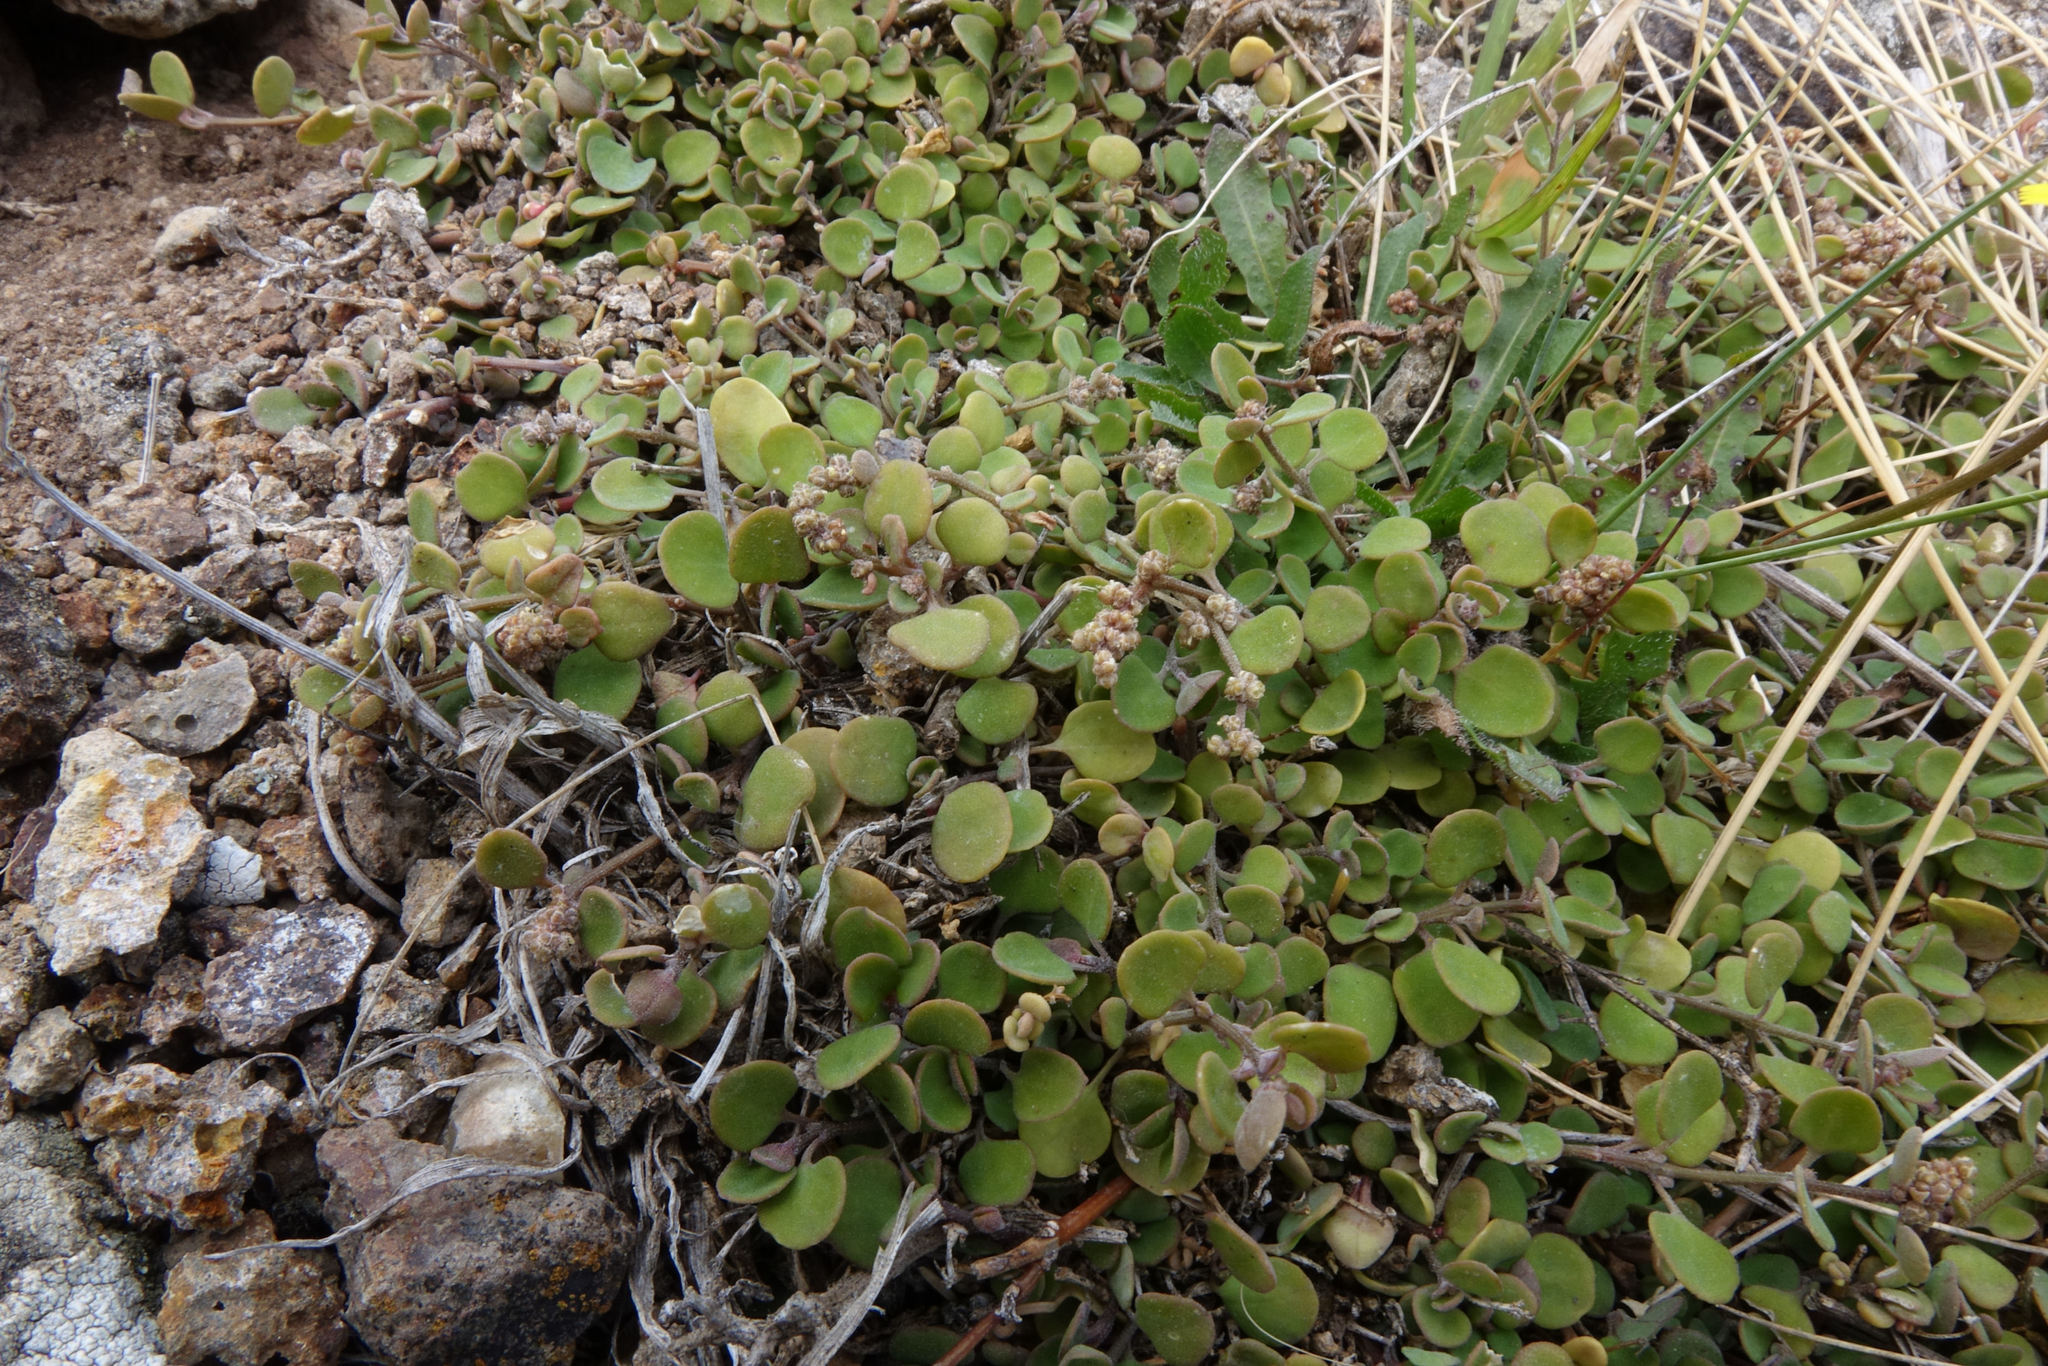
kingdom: Plantae
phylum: Tracheophyta
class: Magnoliopsida
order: Caryophyllales
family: Amaranthaceae
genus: Chenopodium
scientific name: Chenopodium allanii
